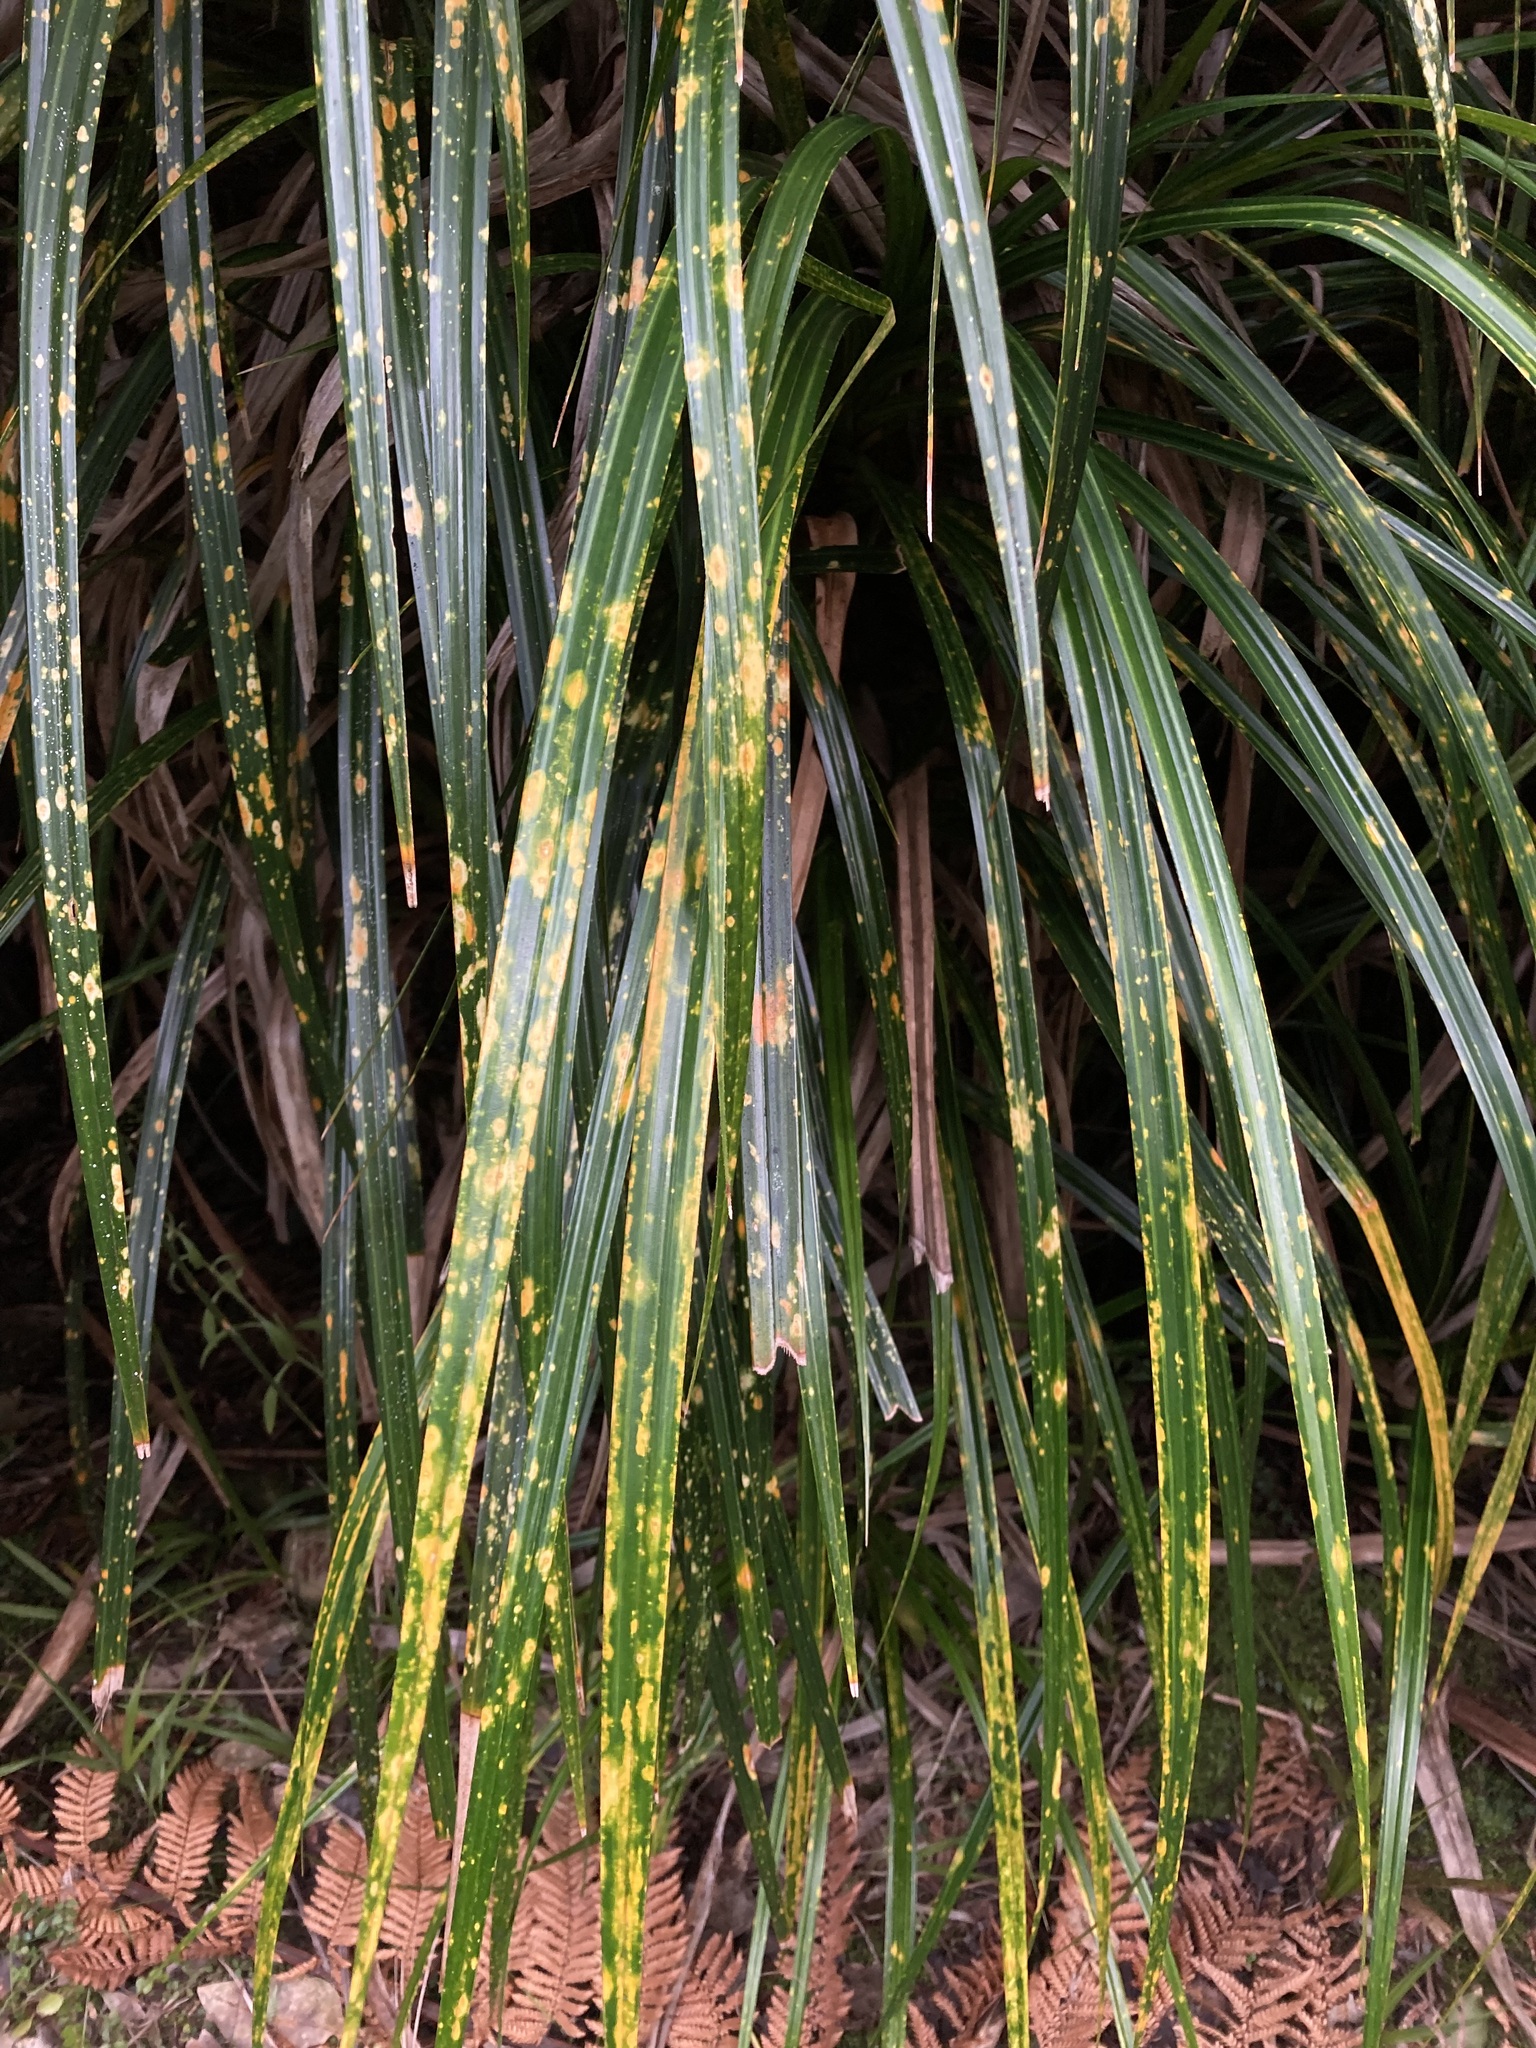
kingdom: Plantae
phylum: Tracheophyta
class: Liliopsida
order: Pandanales
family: Pandanaceae
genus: Freycinetia
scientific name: Freycinetia banksii
